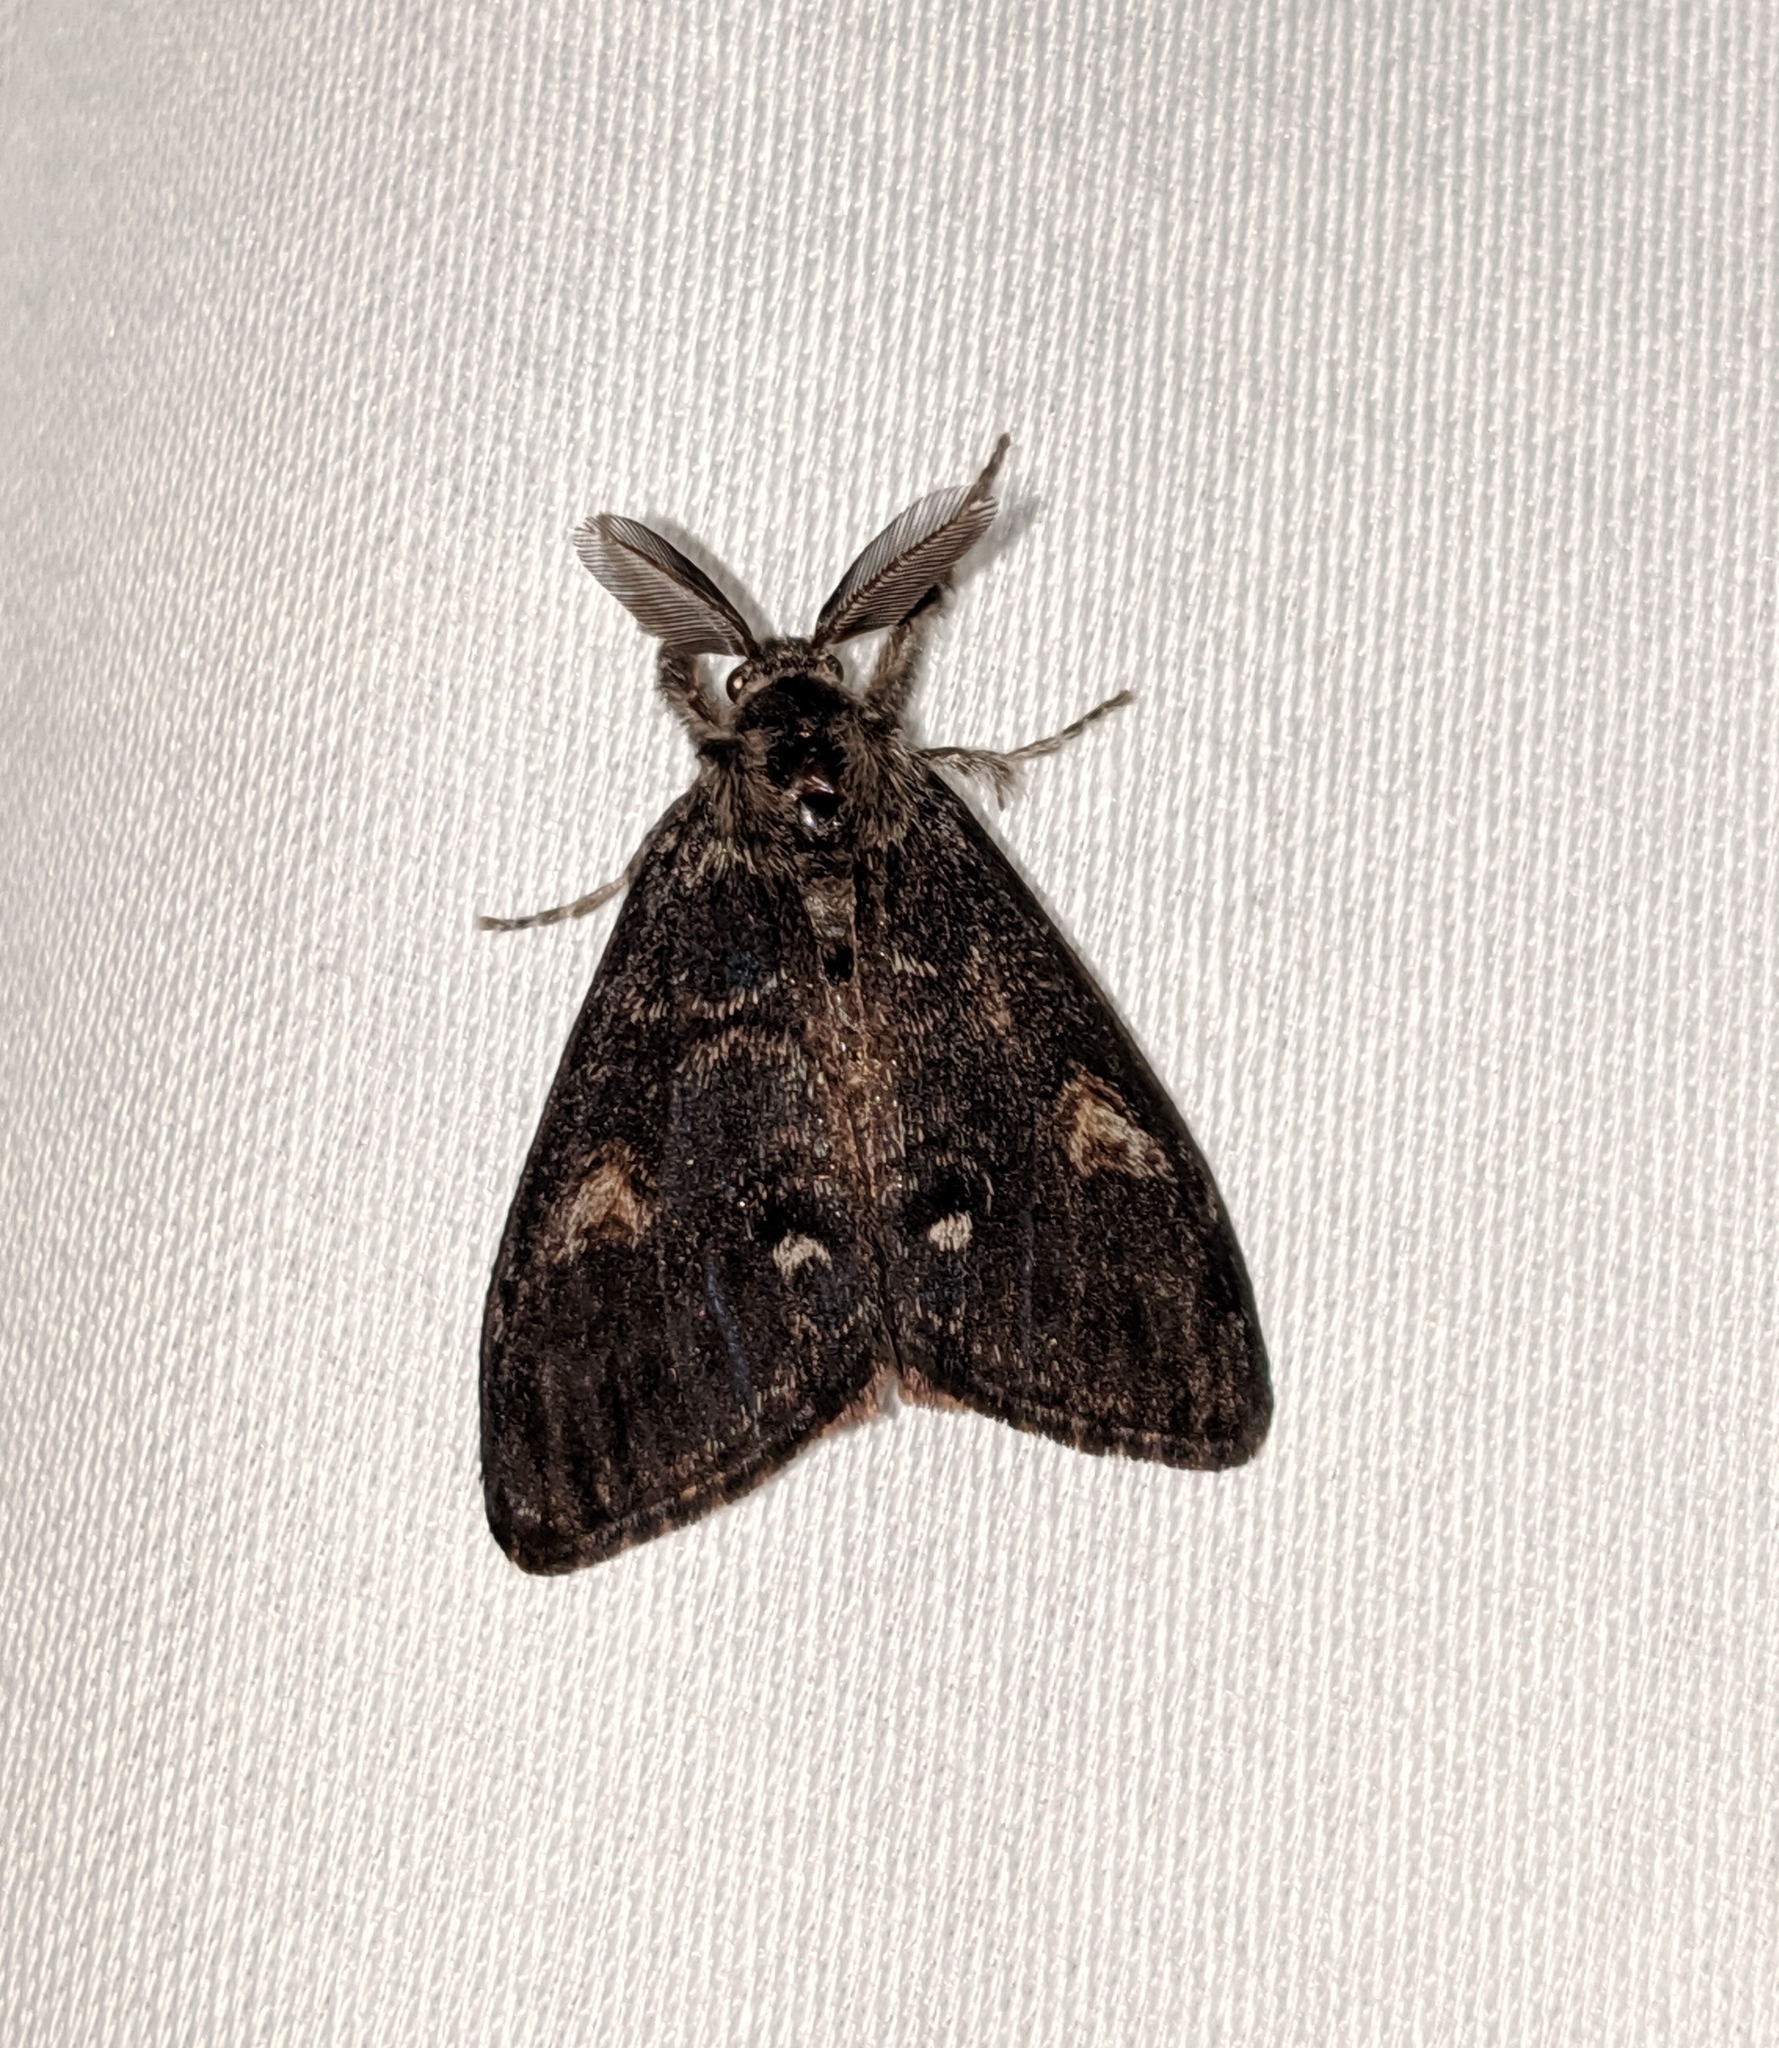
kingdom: Animalia
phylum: Arthropoda
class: Insecta
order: Lepidoptera
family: Erebidae
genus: Orgyia
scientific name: Orgyia pseudotsugata
